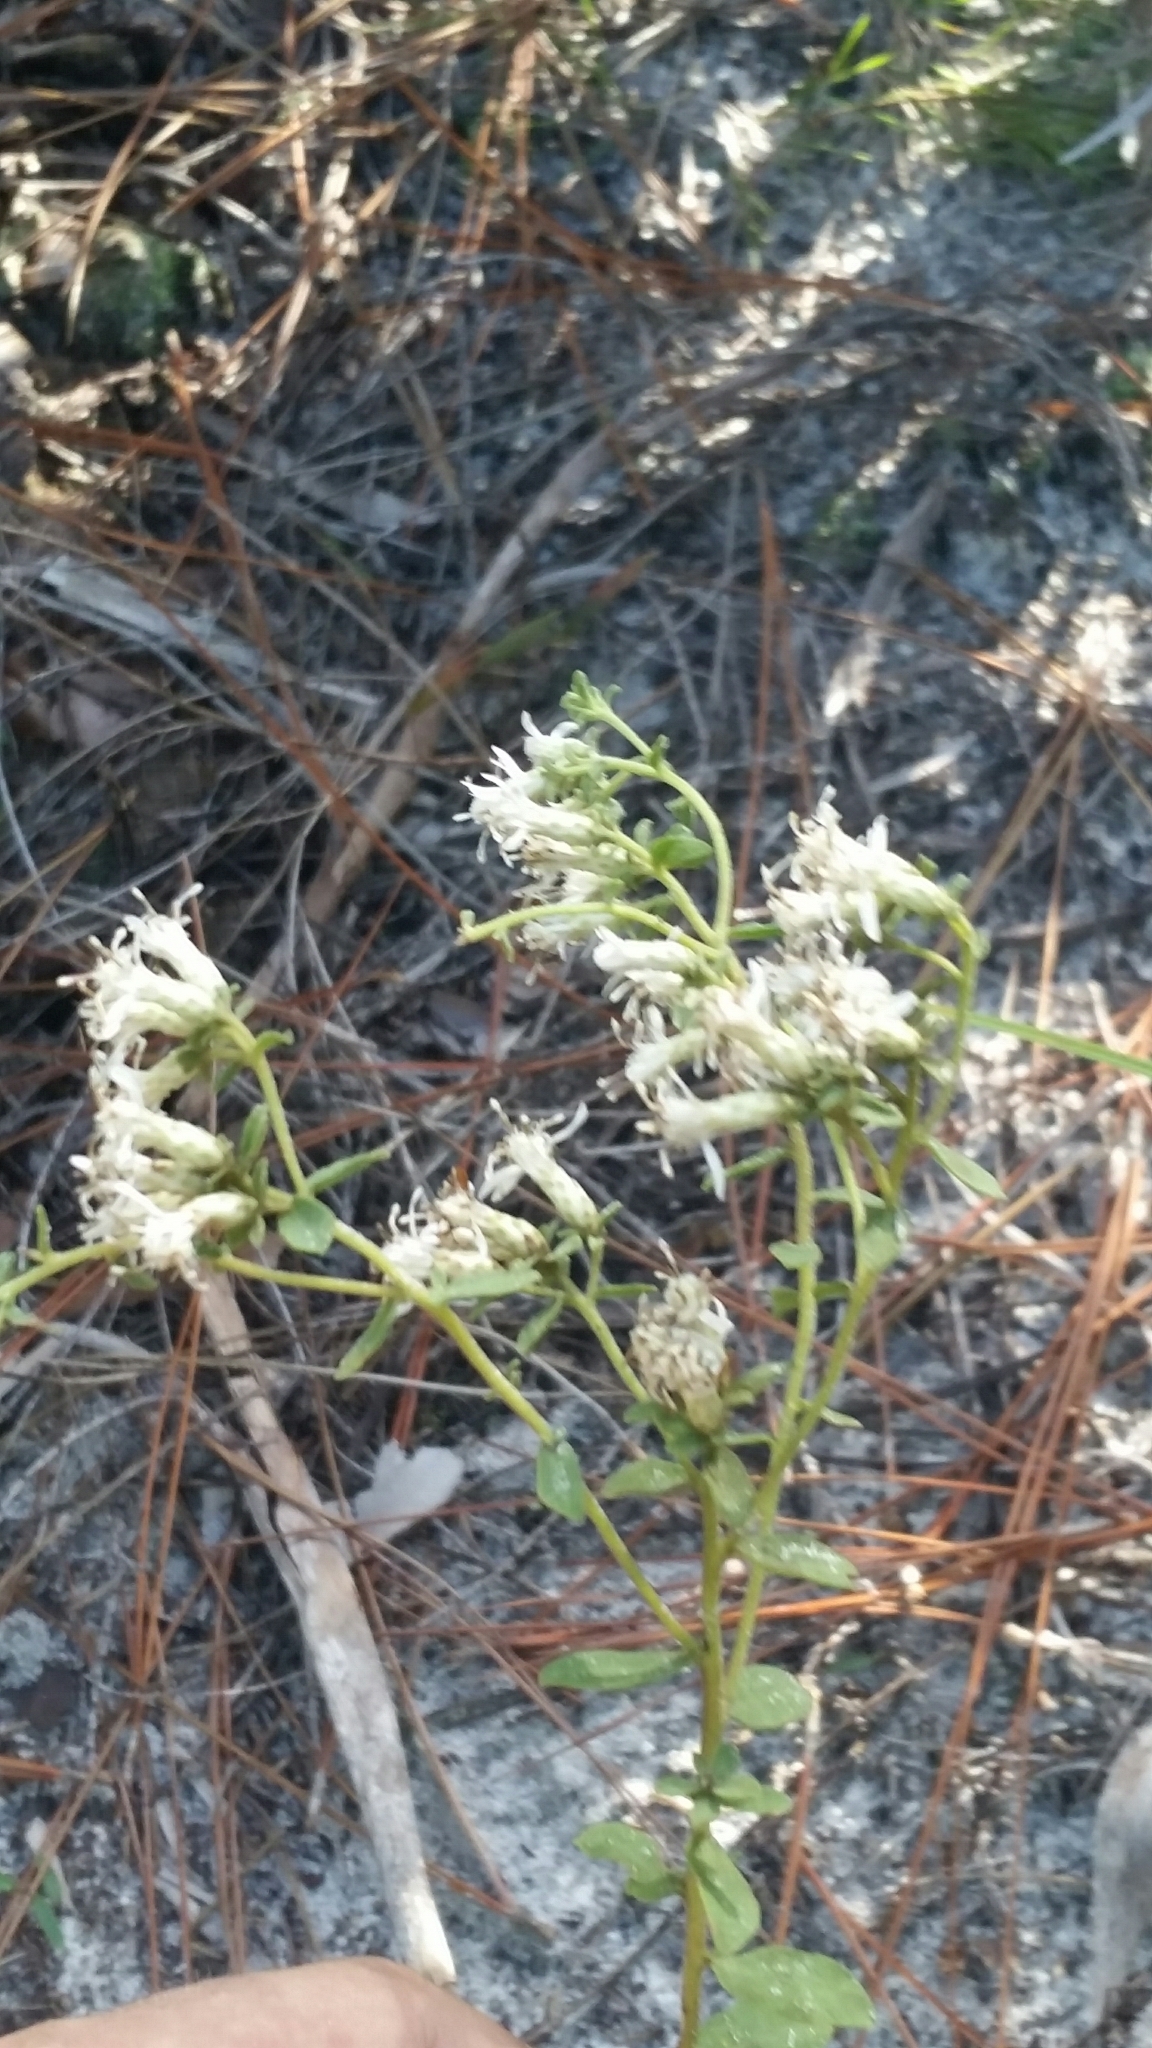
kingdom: Plantae
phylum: Tracheophyta
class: Magnoliopsida
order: Asterales
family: Asteraceae
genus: Sericocarpus
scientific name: Sericocarpus tortifolius
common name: Dixie aster
